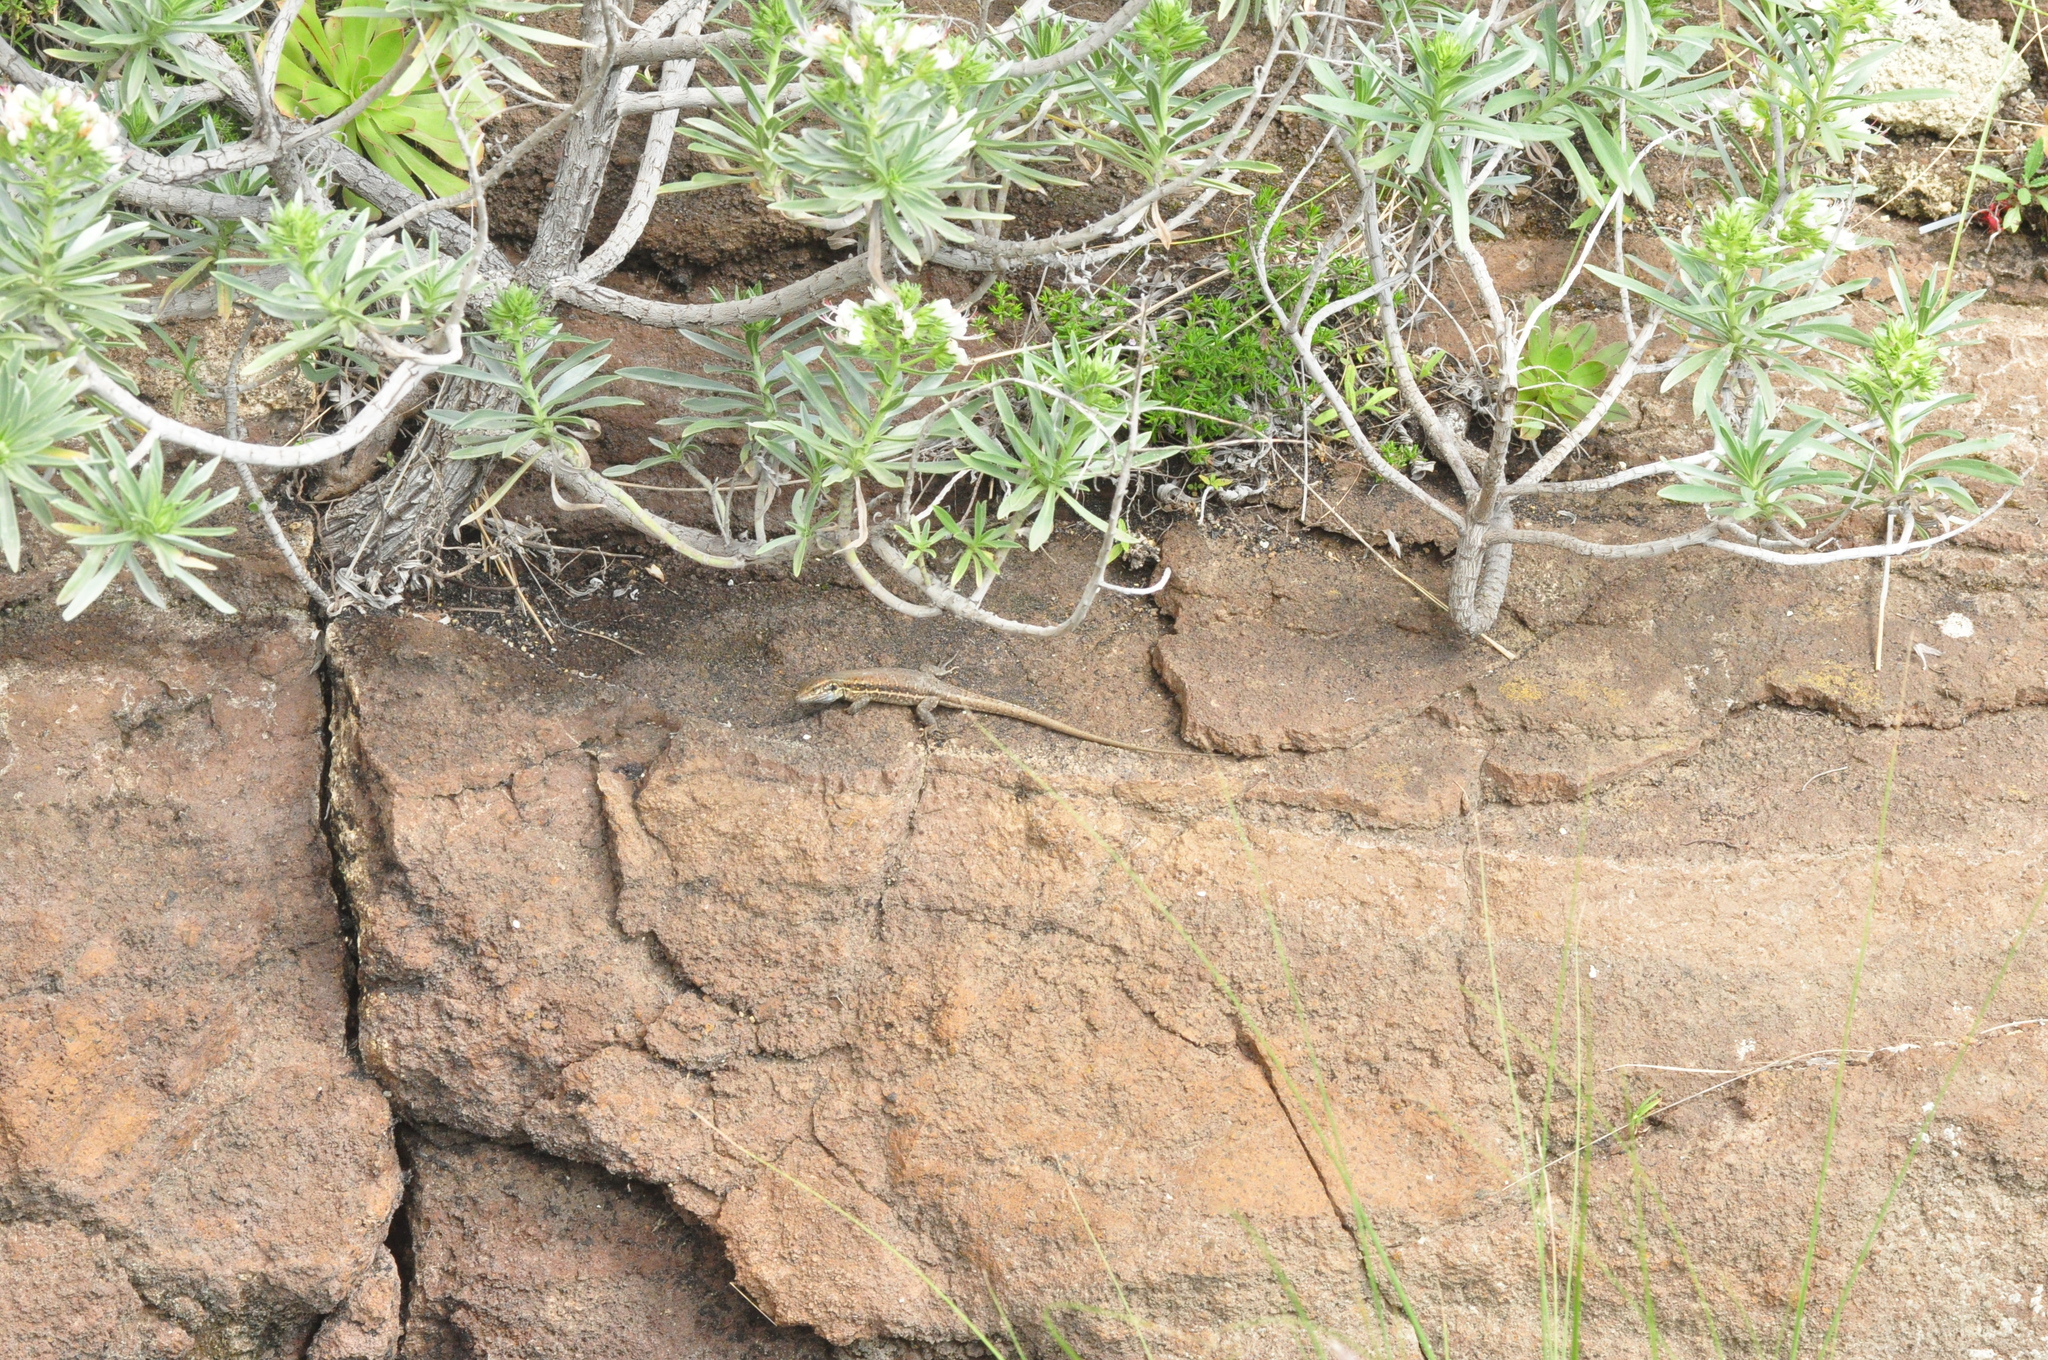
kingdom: Animalia
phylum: Chordata
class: Squamata
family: Lacertidae
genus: Gallotia
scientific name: Gallotia galloti
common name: Gallot's lizard
